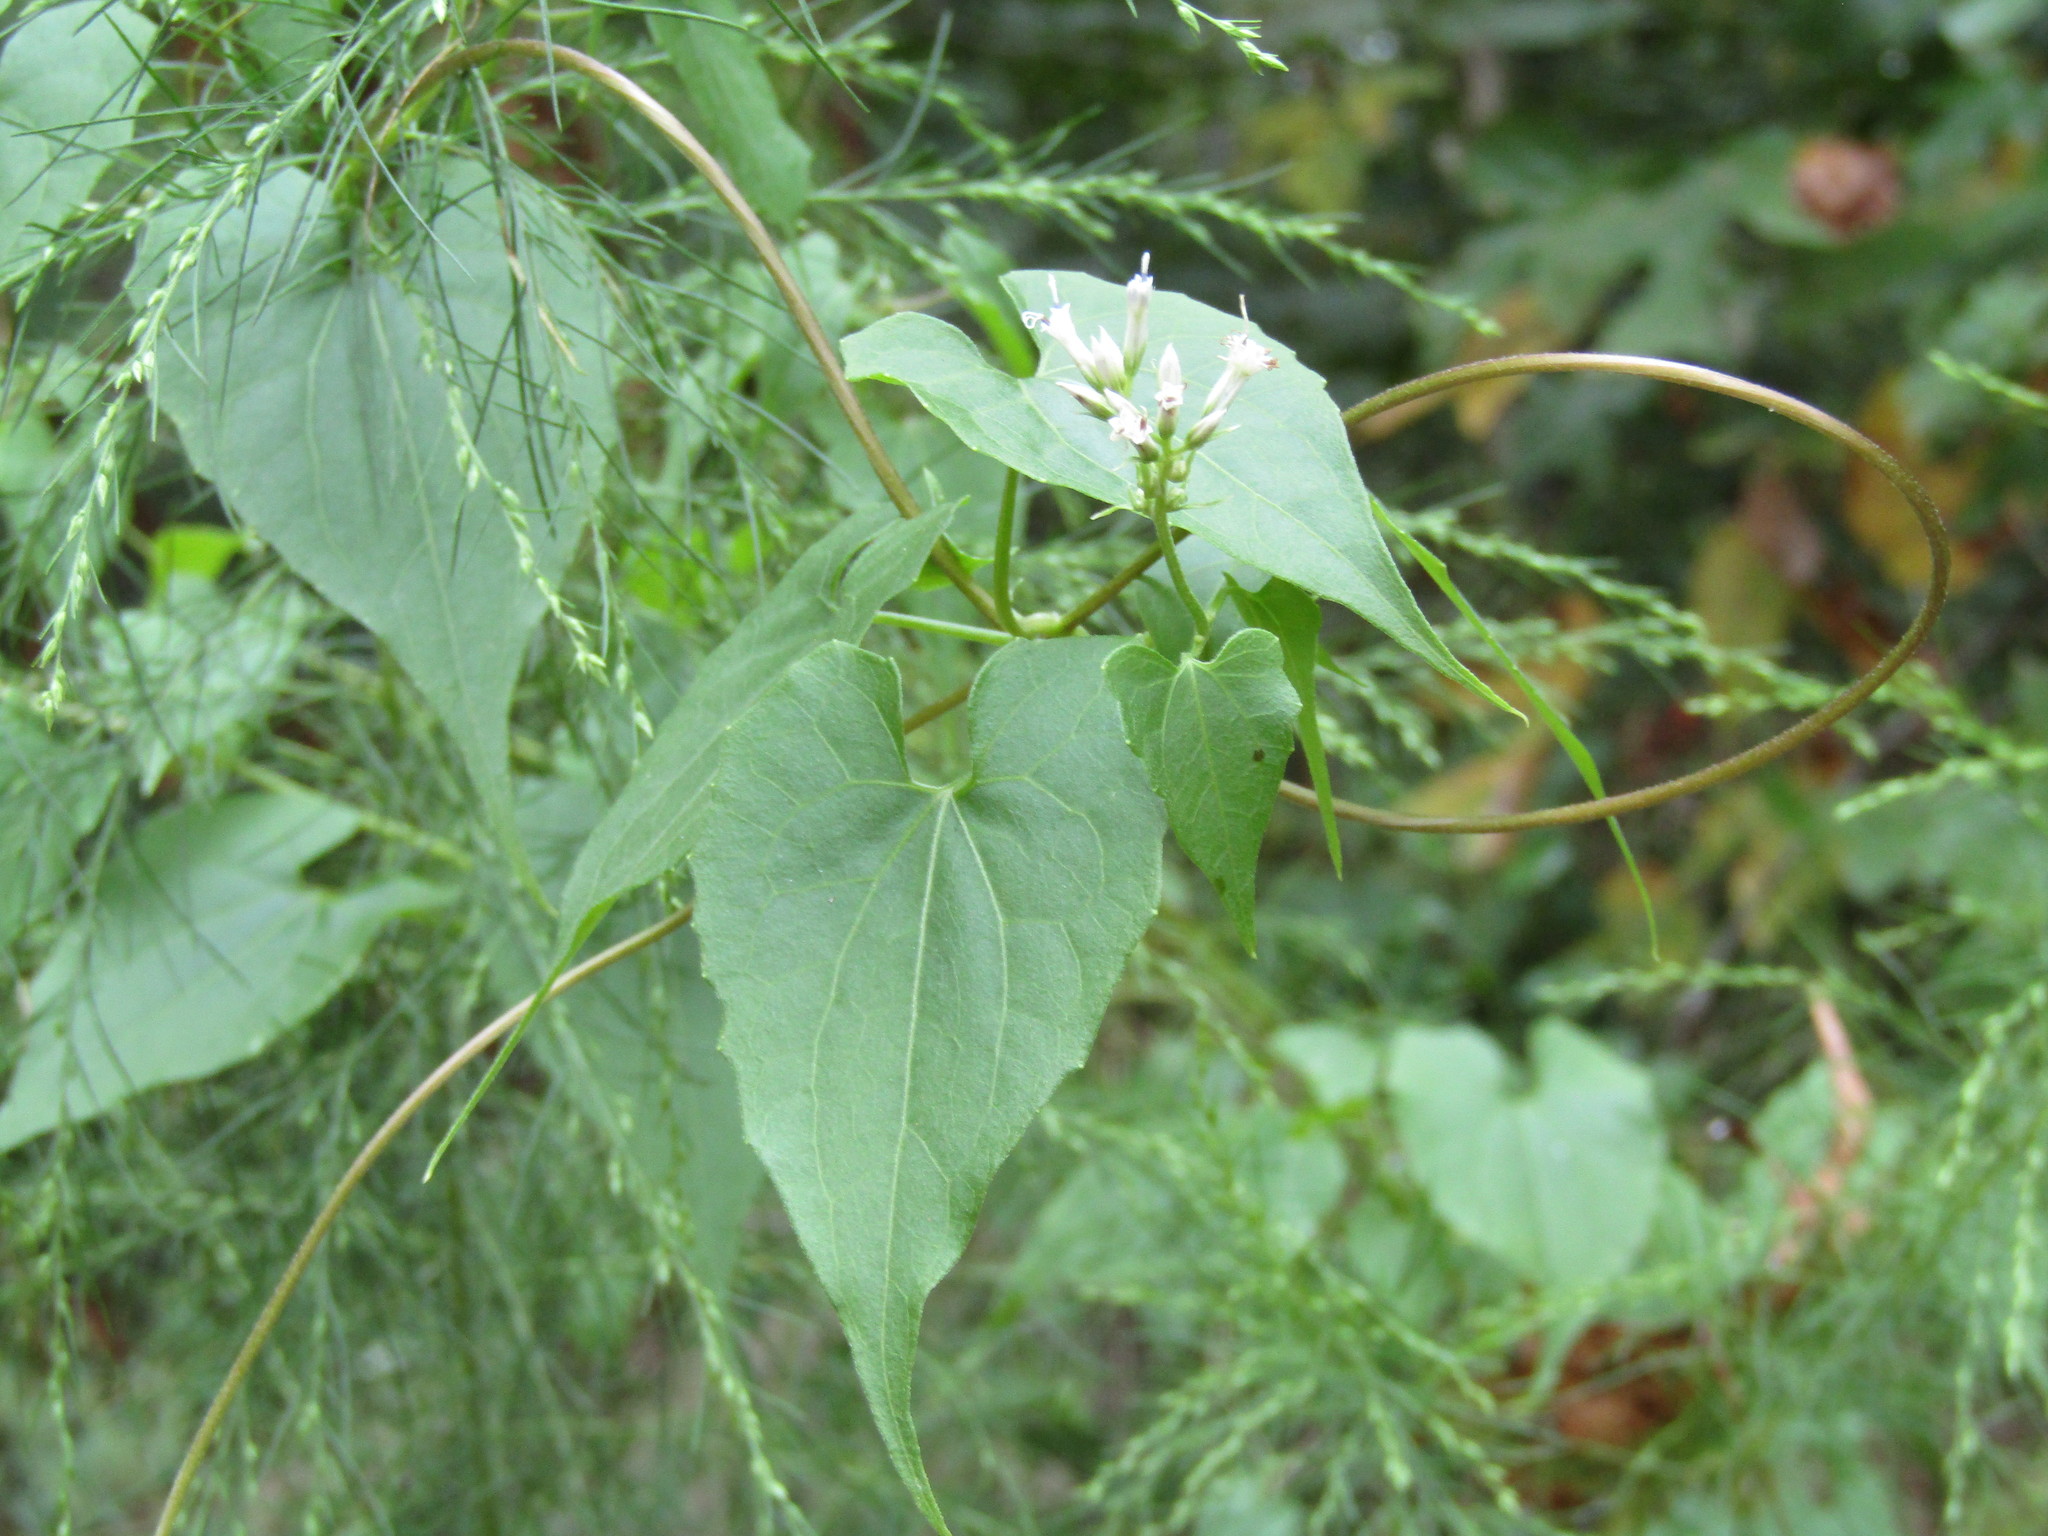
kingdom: Plantae
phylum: Tracheophyta
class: Magnoliopsida
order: Asterales
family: Asteraceae
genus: Mikania
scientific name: Mikania scandens
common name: Climbing hempvine
